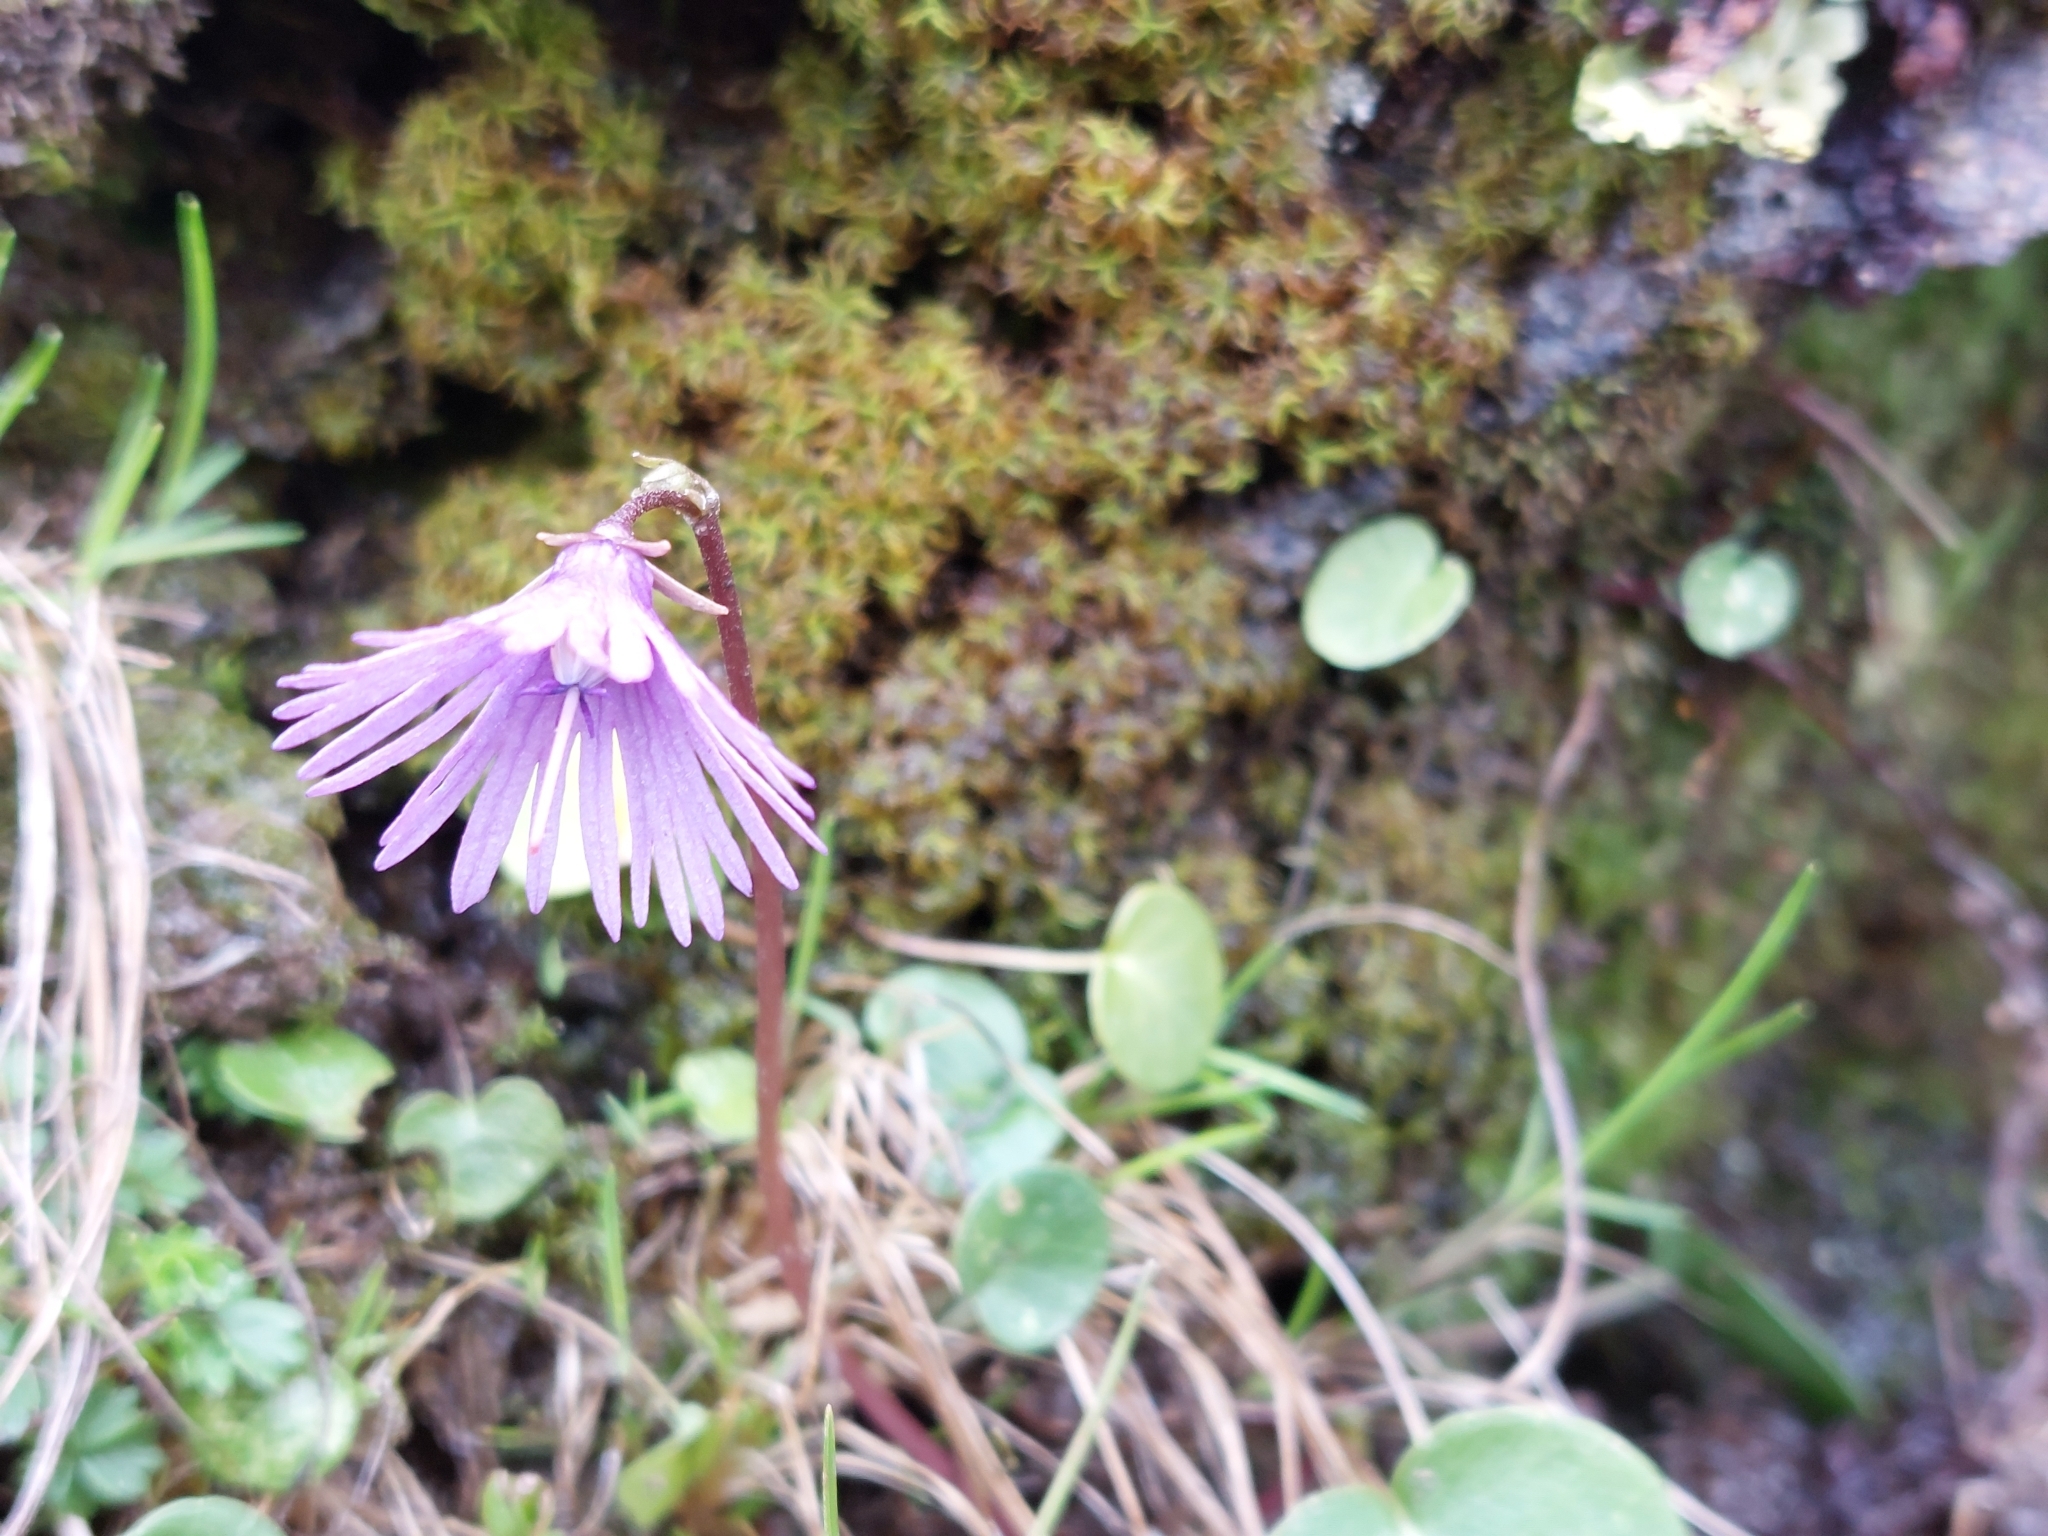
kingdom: Plantae
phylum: Tracheophyta
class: Magnoliopsida
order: Ericales
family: Primulaceae
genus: Soldanella
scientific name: Soldanella alpina
